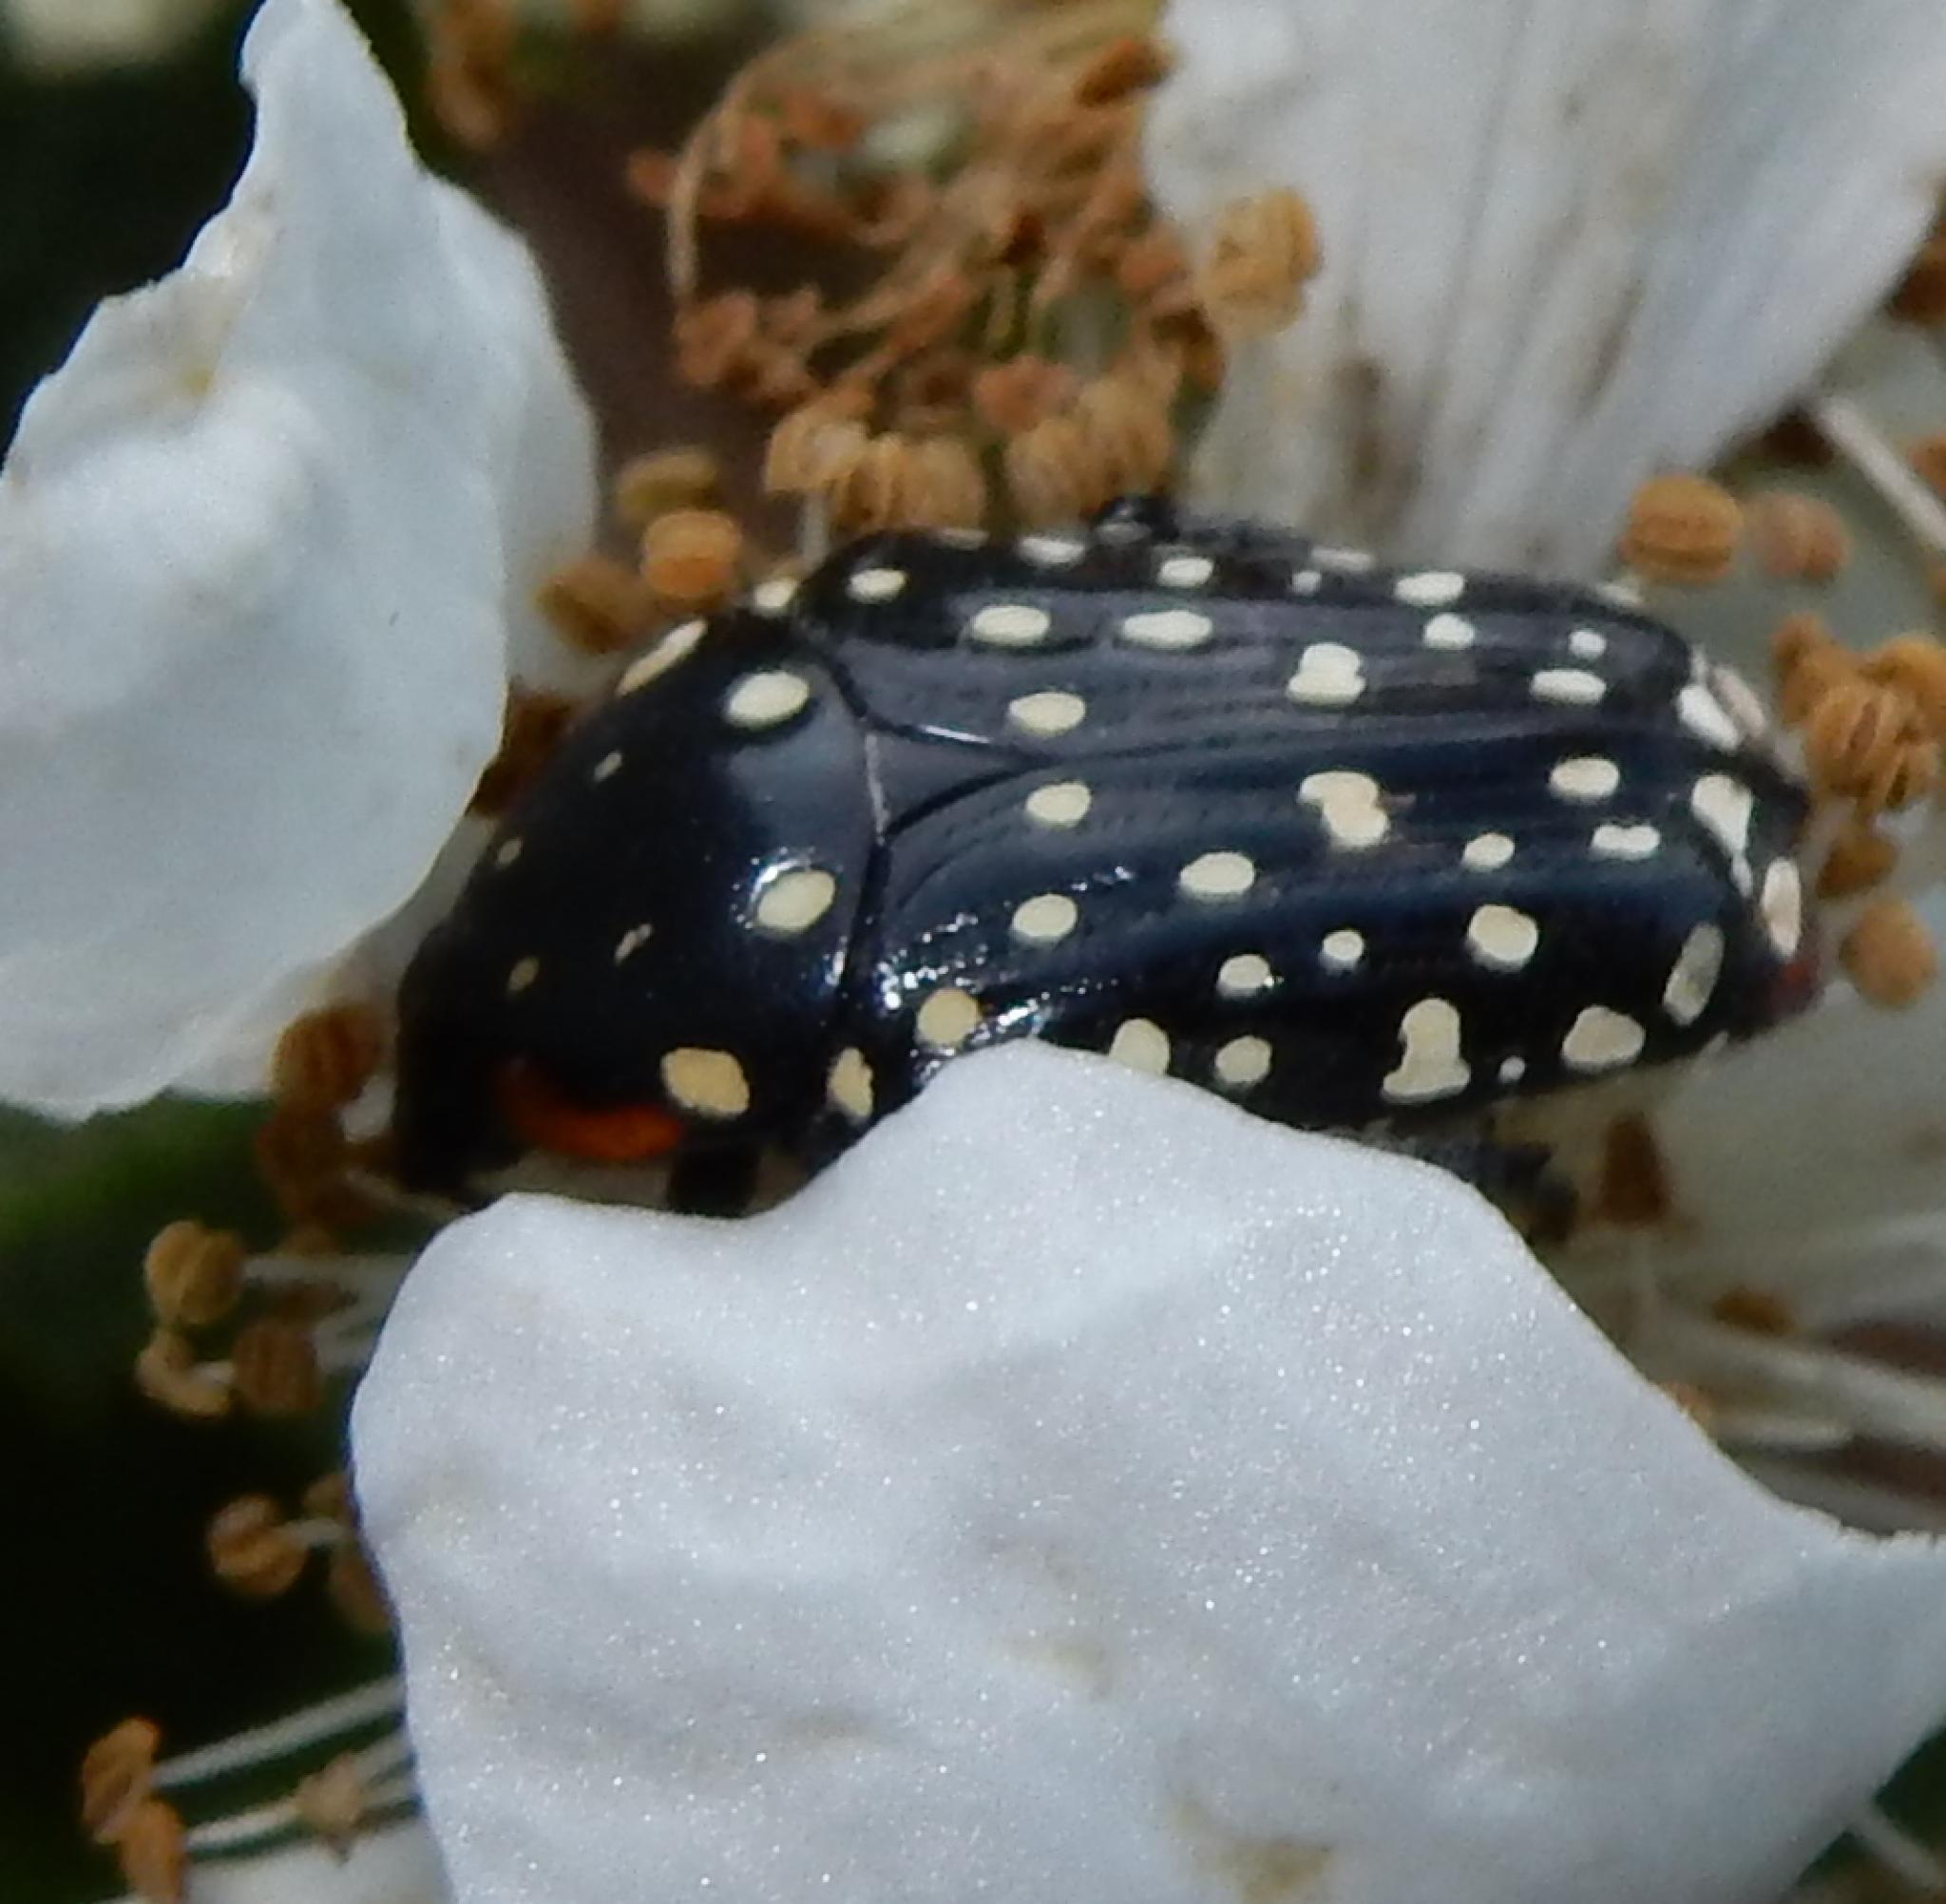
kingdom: Animalia
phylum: Arthropoda
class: Insecta
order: Coleoptera
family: Scarabaeidae
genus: Oxythyrea
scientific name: Oxythyrea
